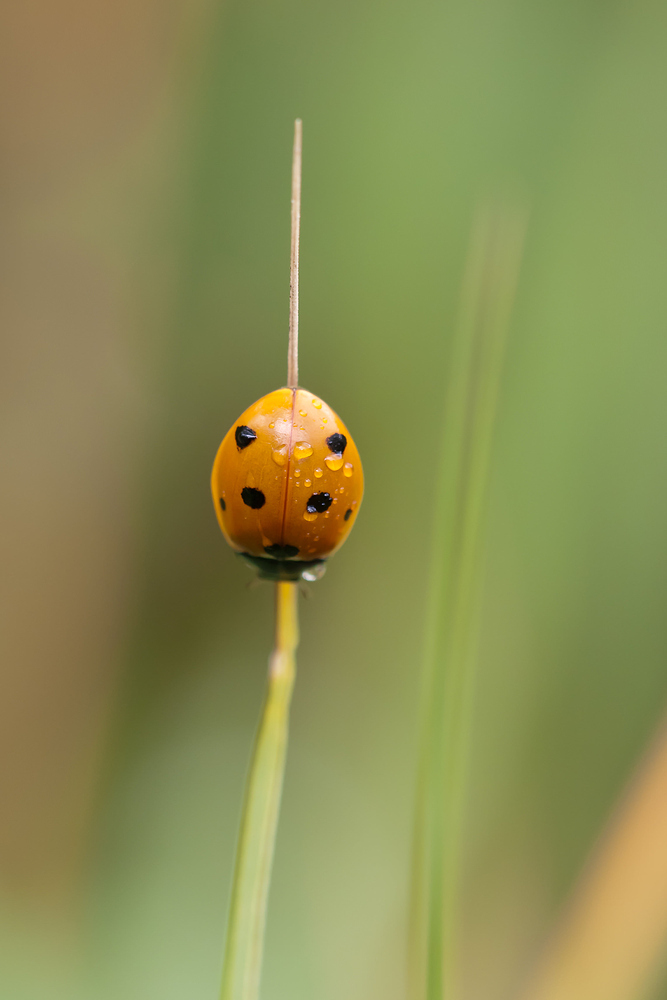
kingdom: Animalia
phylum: Arthropoda
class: Insecta
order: Coleoptera
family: Coccinellidae
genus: Coccinella
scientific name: Coccinella septempunctata
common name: Sevenspotted lady beetle
